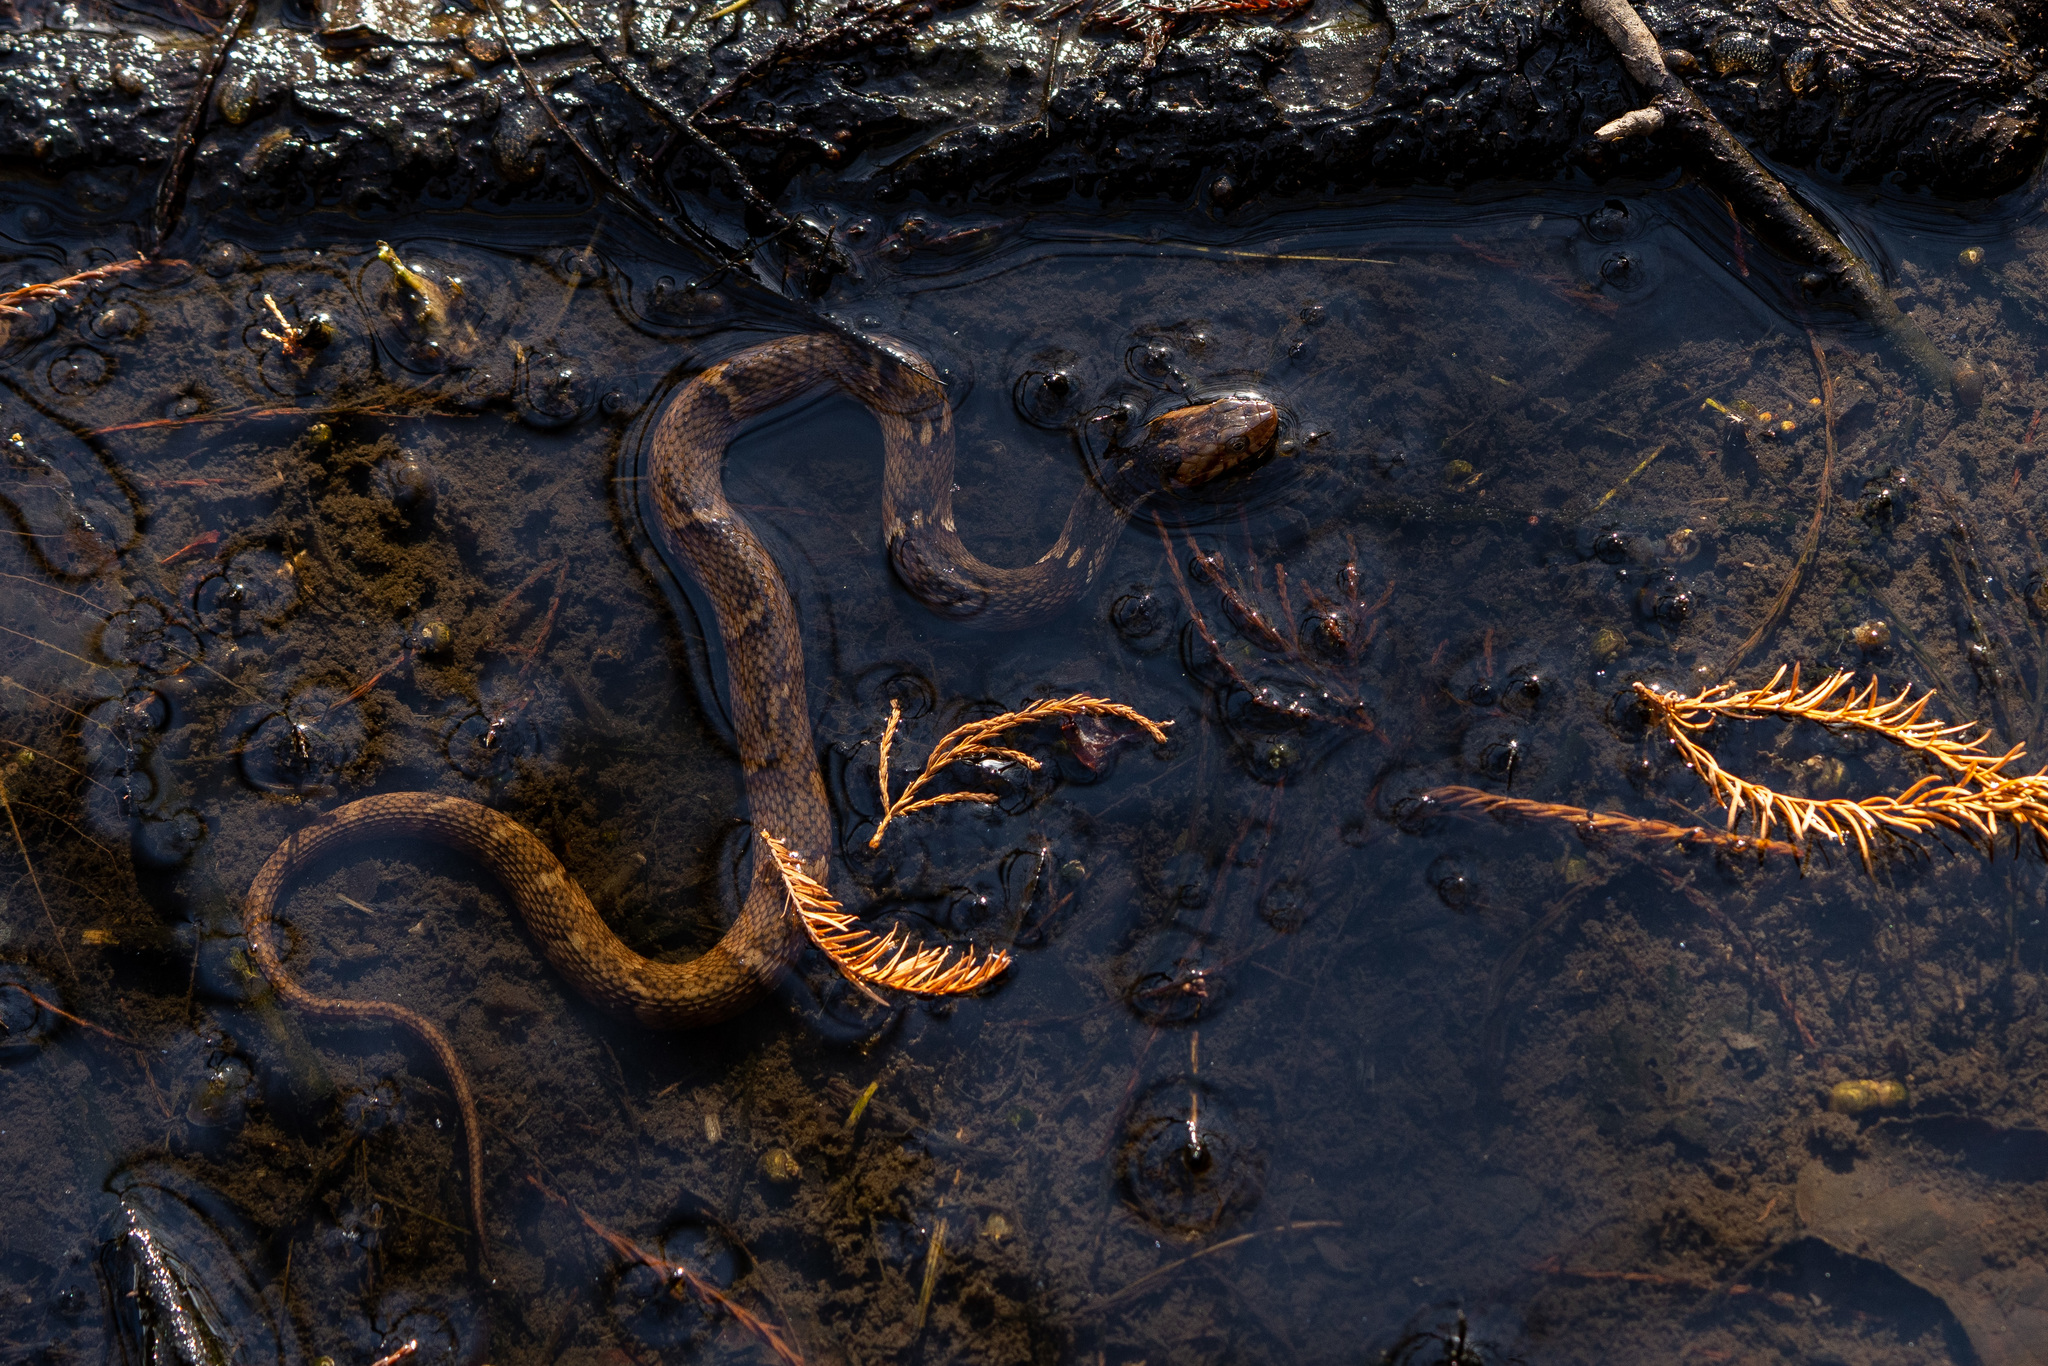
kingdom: Animalia
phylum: Chordata
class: Squamata
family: Colubridae
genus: Nerodia
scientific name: Nerodia fasciata
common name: Southern water snake
